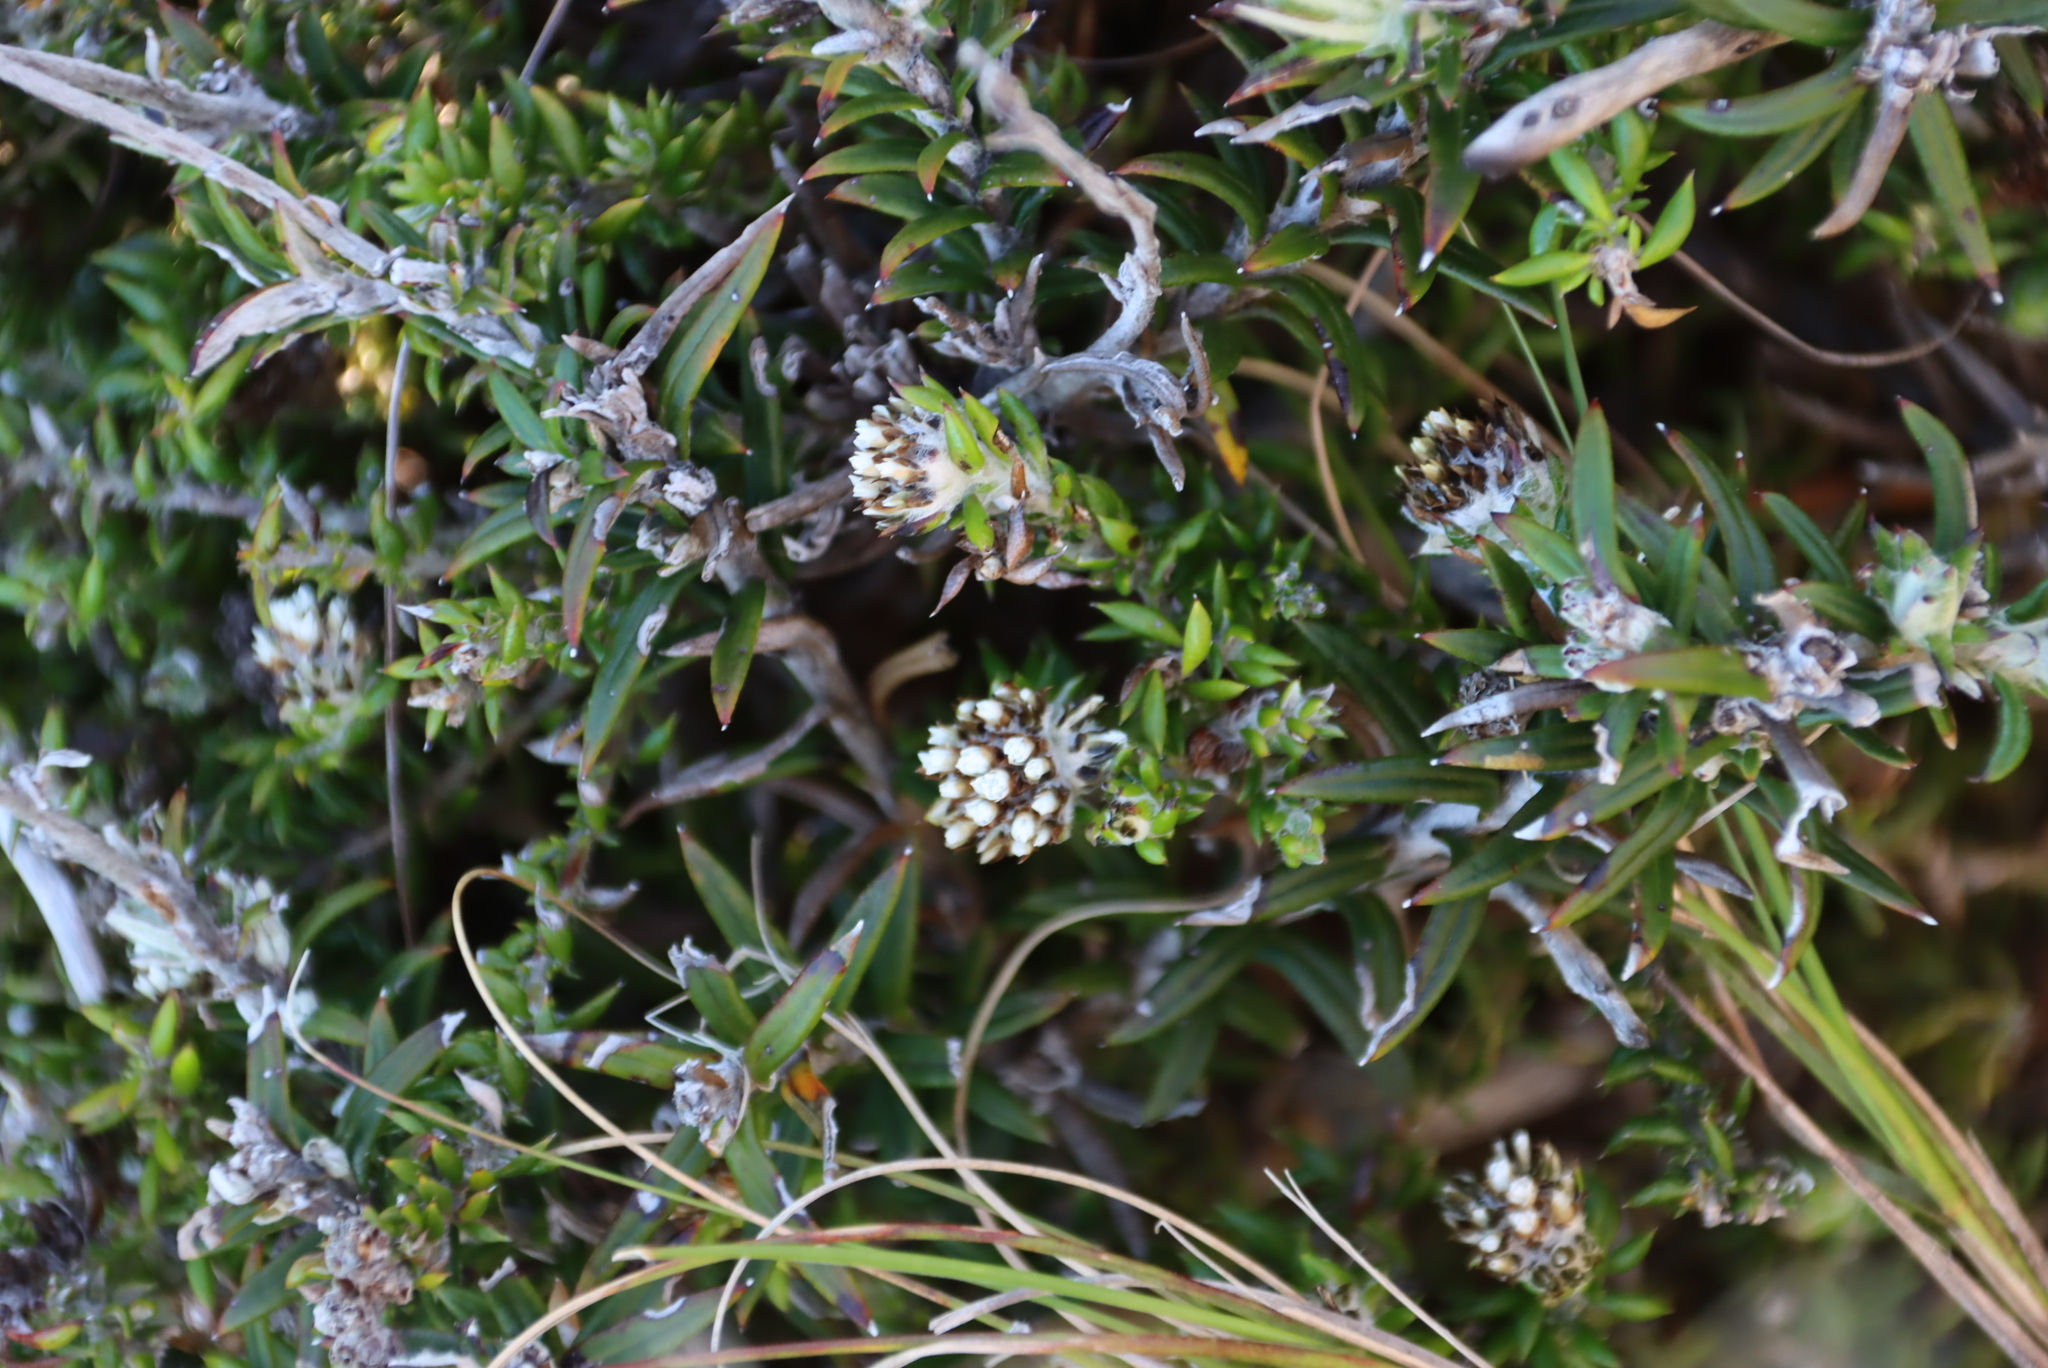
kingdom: Plantae
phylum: Tracheophyta
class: Magnoliopsida
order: Asterales
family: Asteraceae
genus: Metalasia
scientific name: Metalasia divergens
